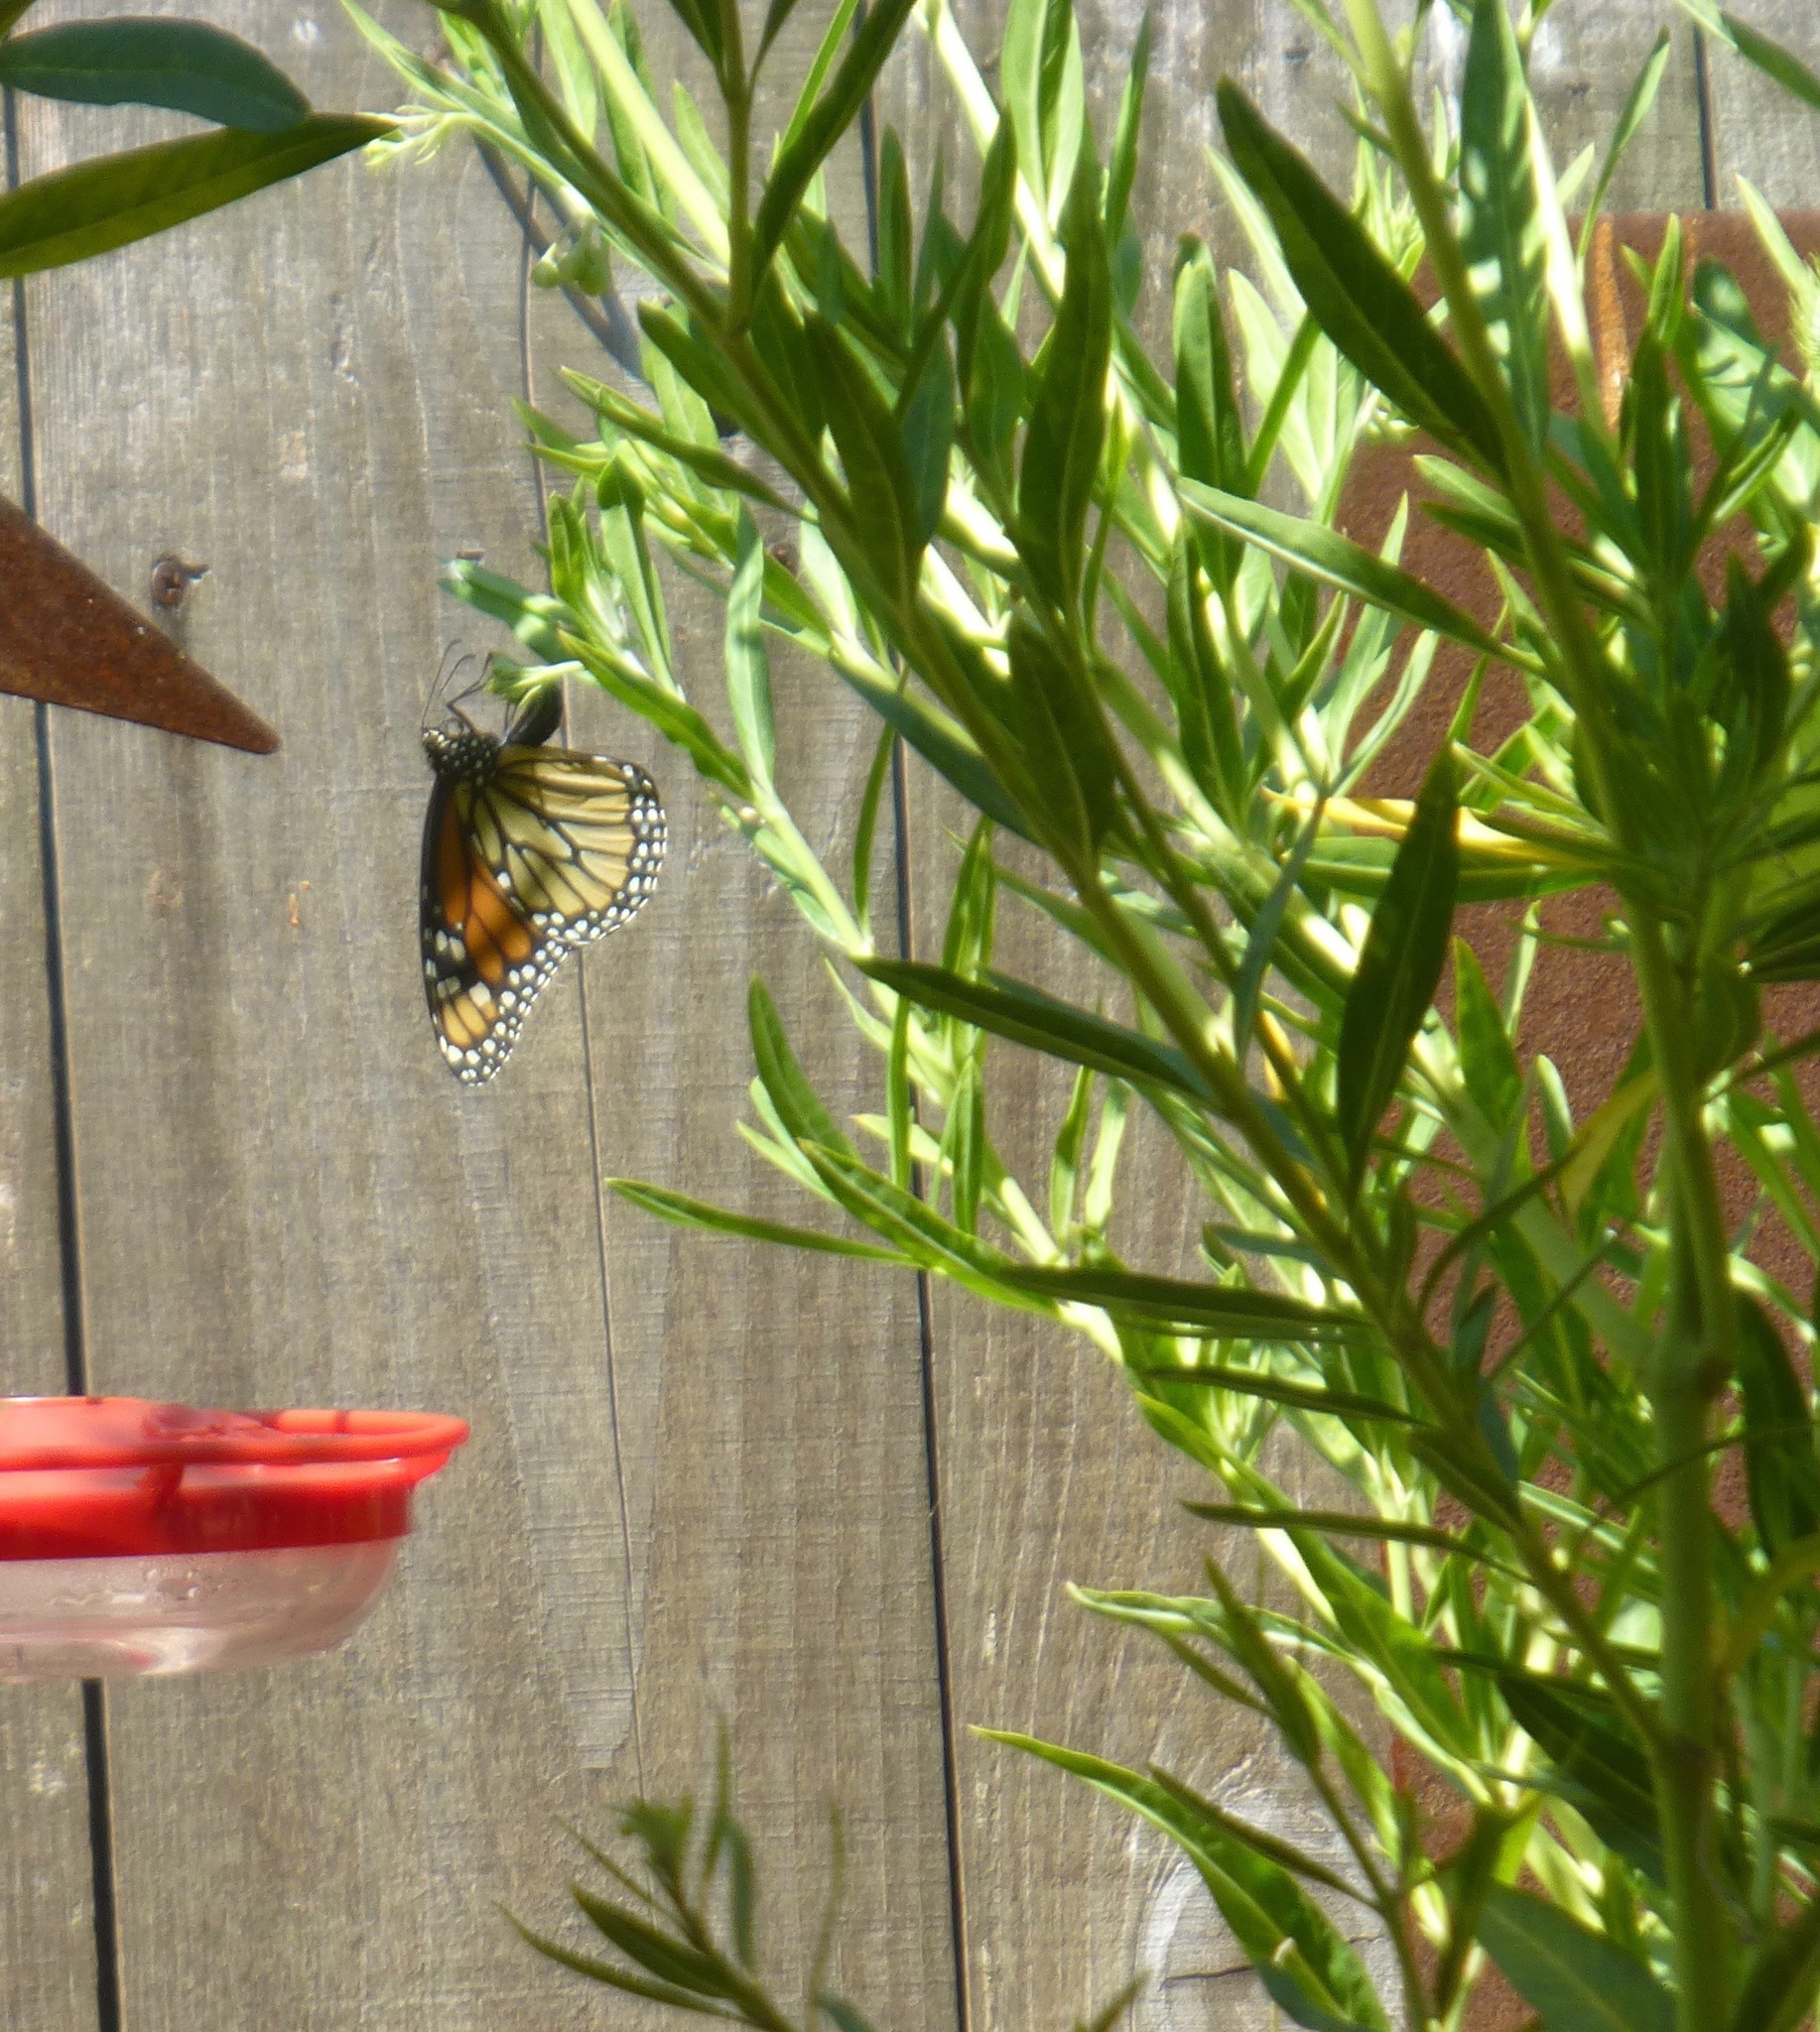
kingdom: Animalia
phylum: Arthropoda
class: Insecta
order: Lepidoptera
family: Nymphalidae
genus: Danaus
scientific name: Danaus plexippus
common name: Monarch
